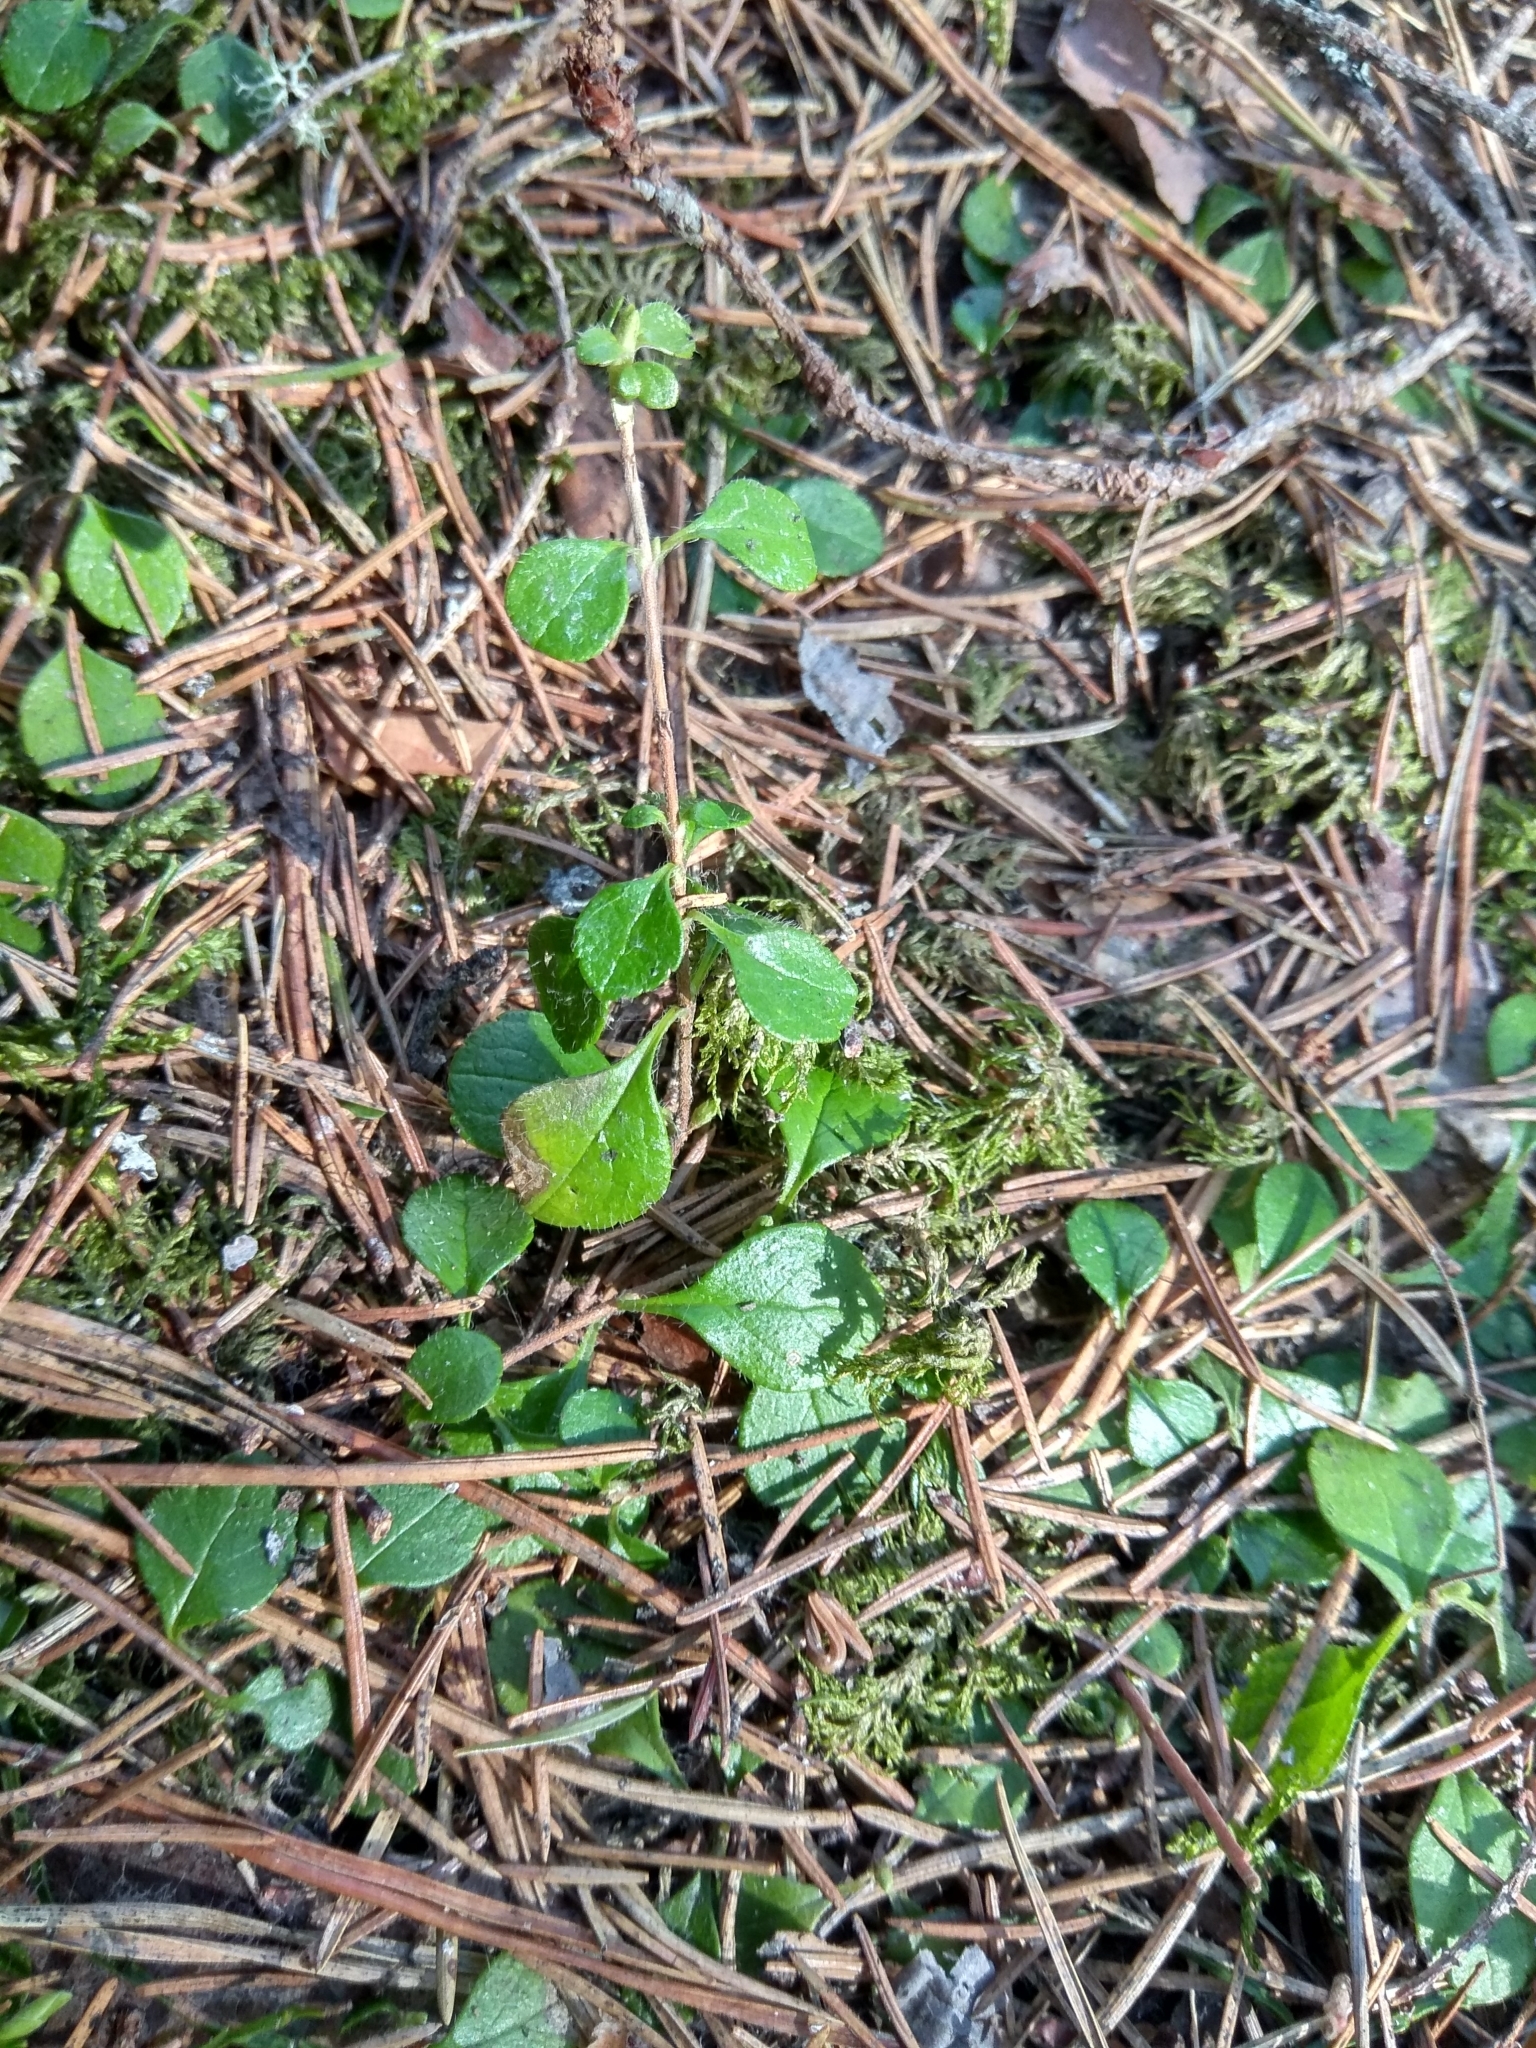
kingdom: Plantae
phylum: Tracheophyta
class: Magnoliopsida
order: Dipsacales
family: Caprifoliaceae
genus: Linnaea
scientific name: Linnaea borealis
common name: Twinflower
